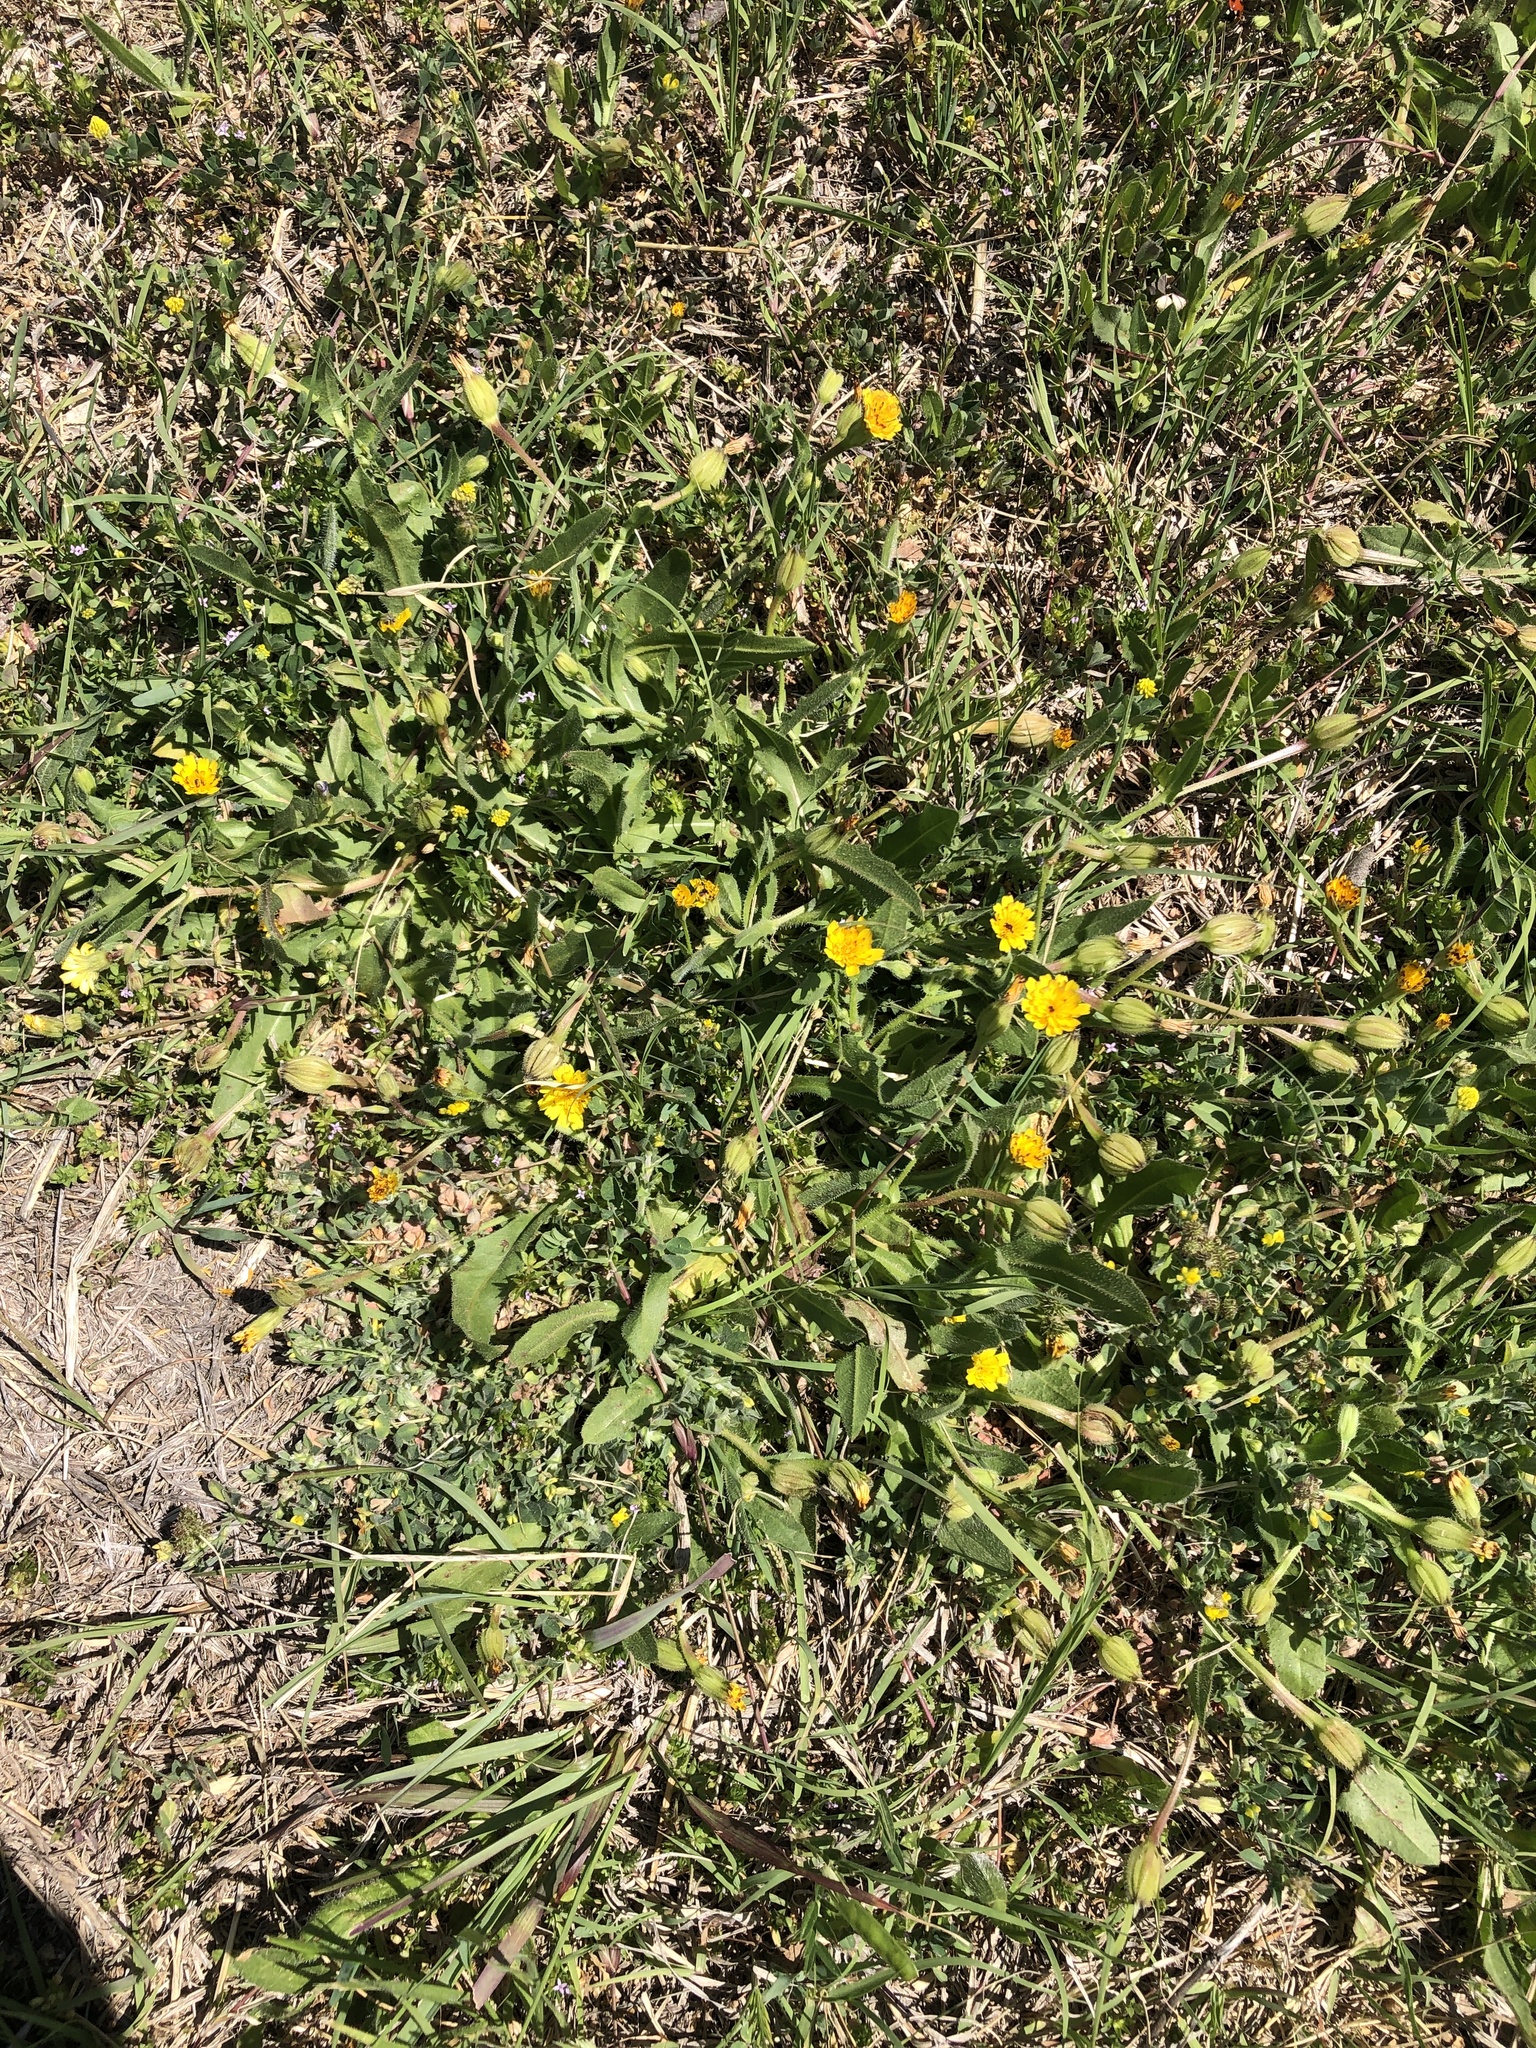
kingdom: Plantae
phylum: Tracheophyta
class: Magnoliopsida
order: Asterales
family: Asteraceae
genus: Hedypnois
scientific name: Hedypnois rhagadioloides
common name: Cretan weed
